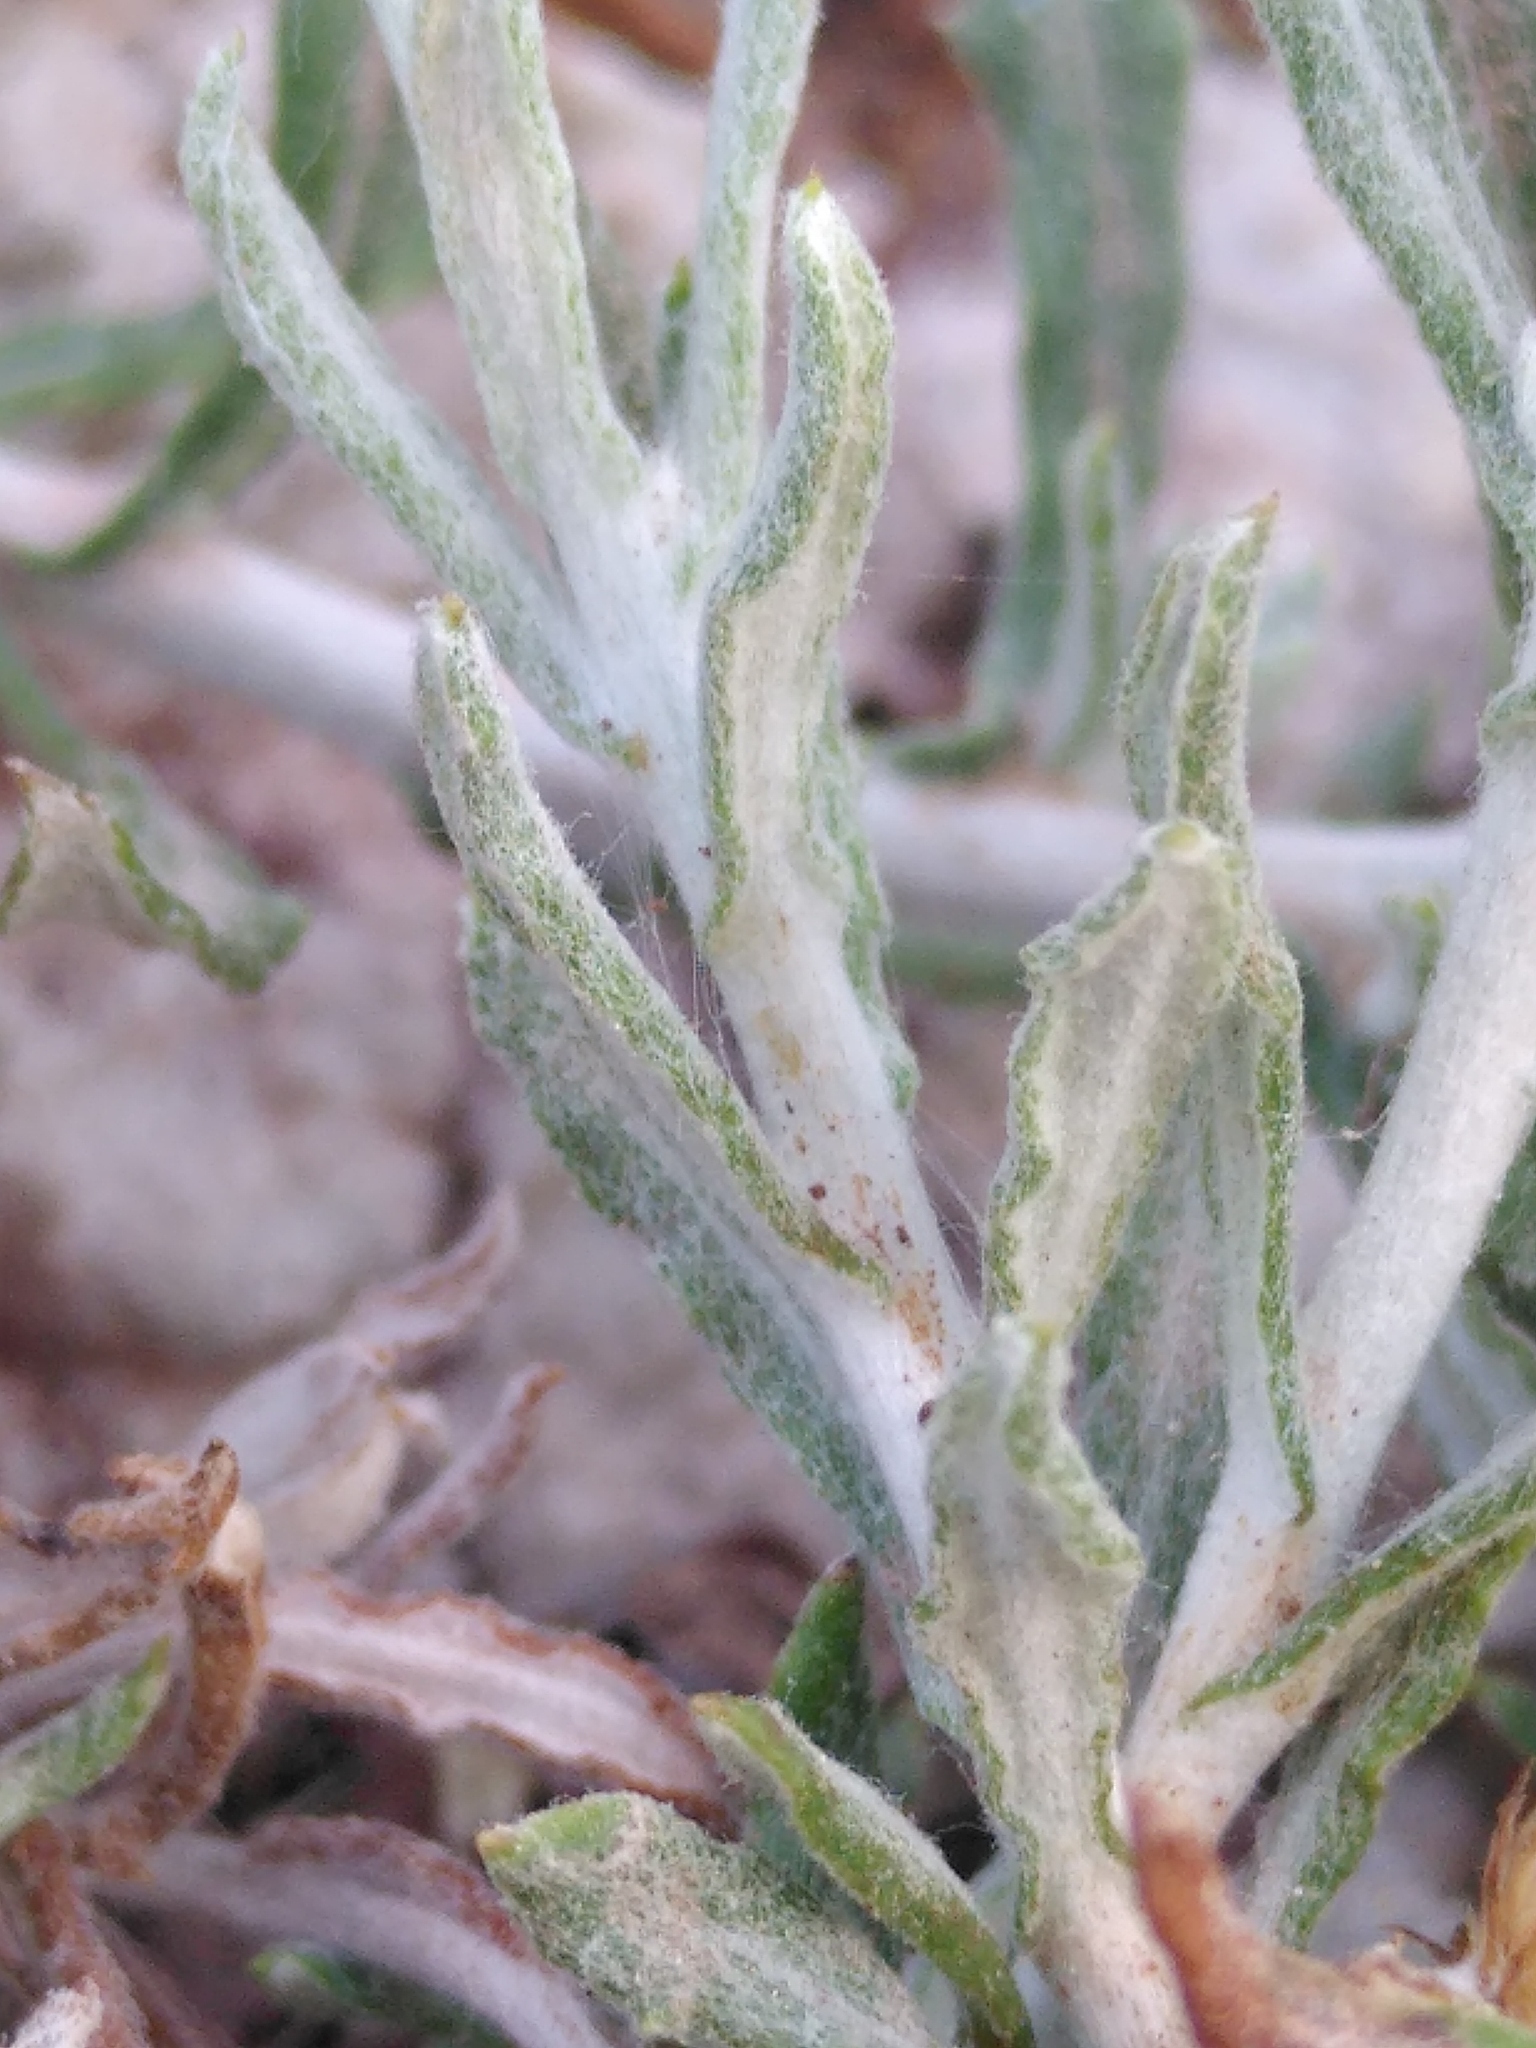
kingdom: Plantae
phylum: Tracheophyta
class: Magnoliopsida
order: Asterales
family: Asteraceae
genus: Phagnalon
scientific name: Phagnalon graecum
